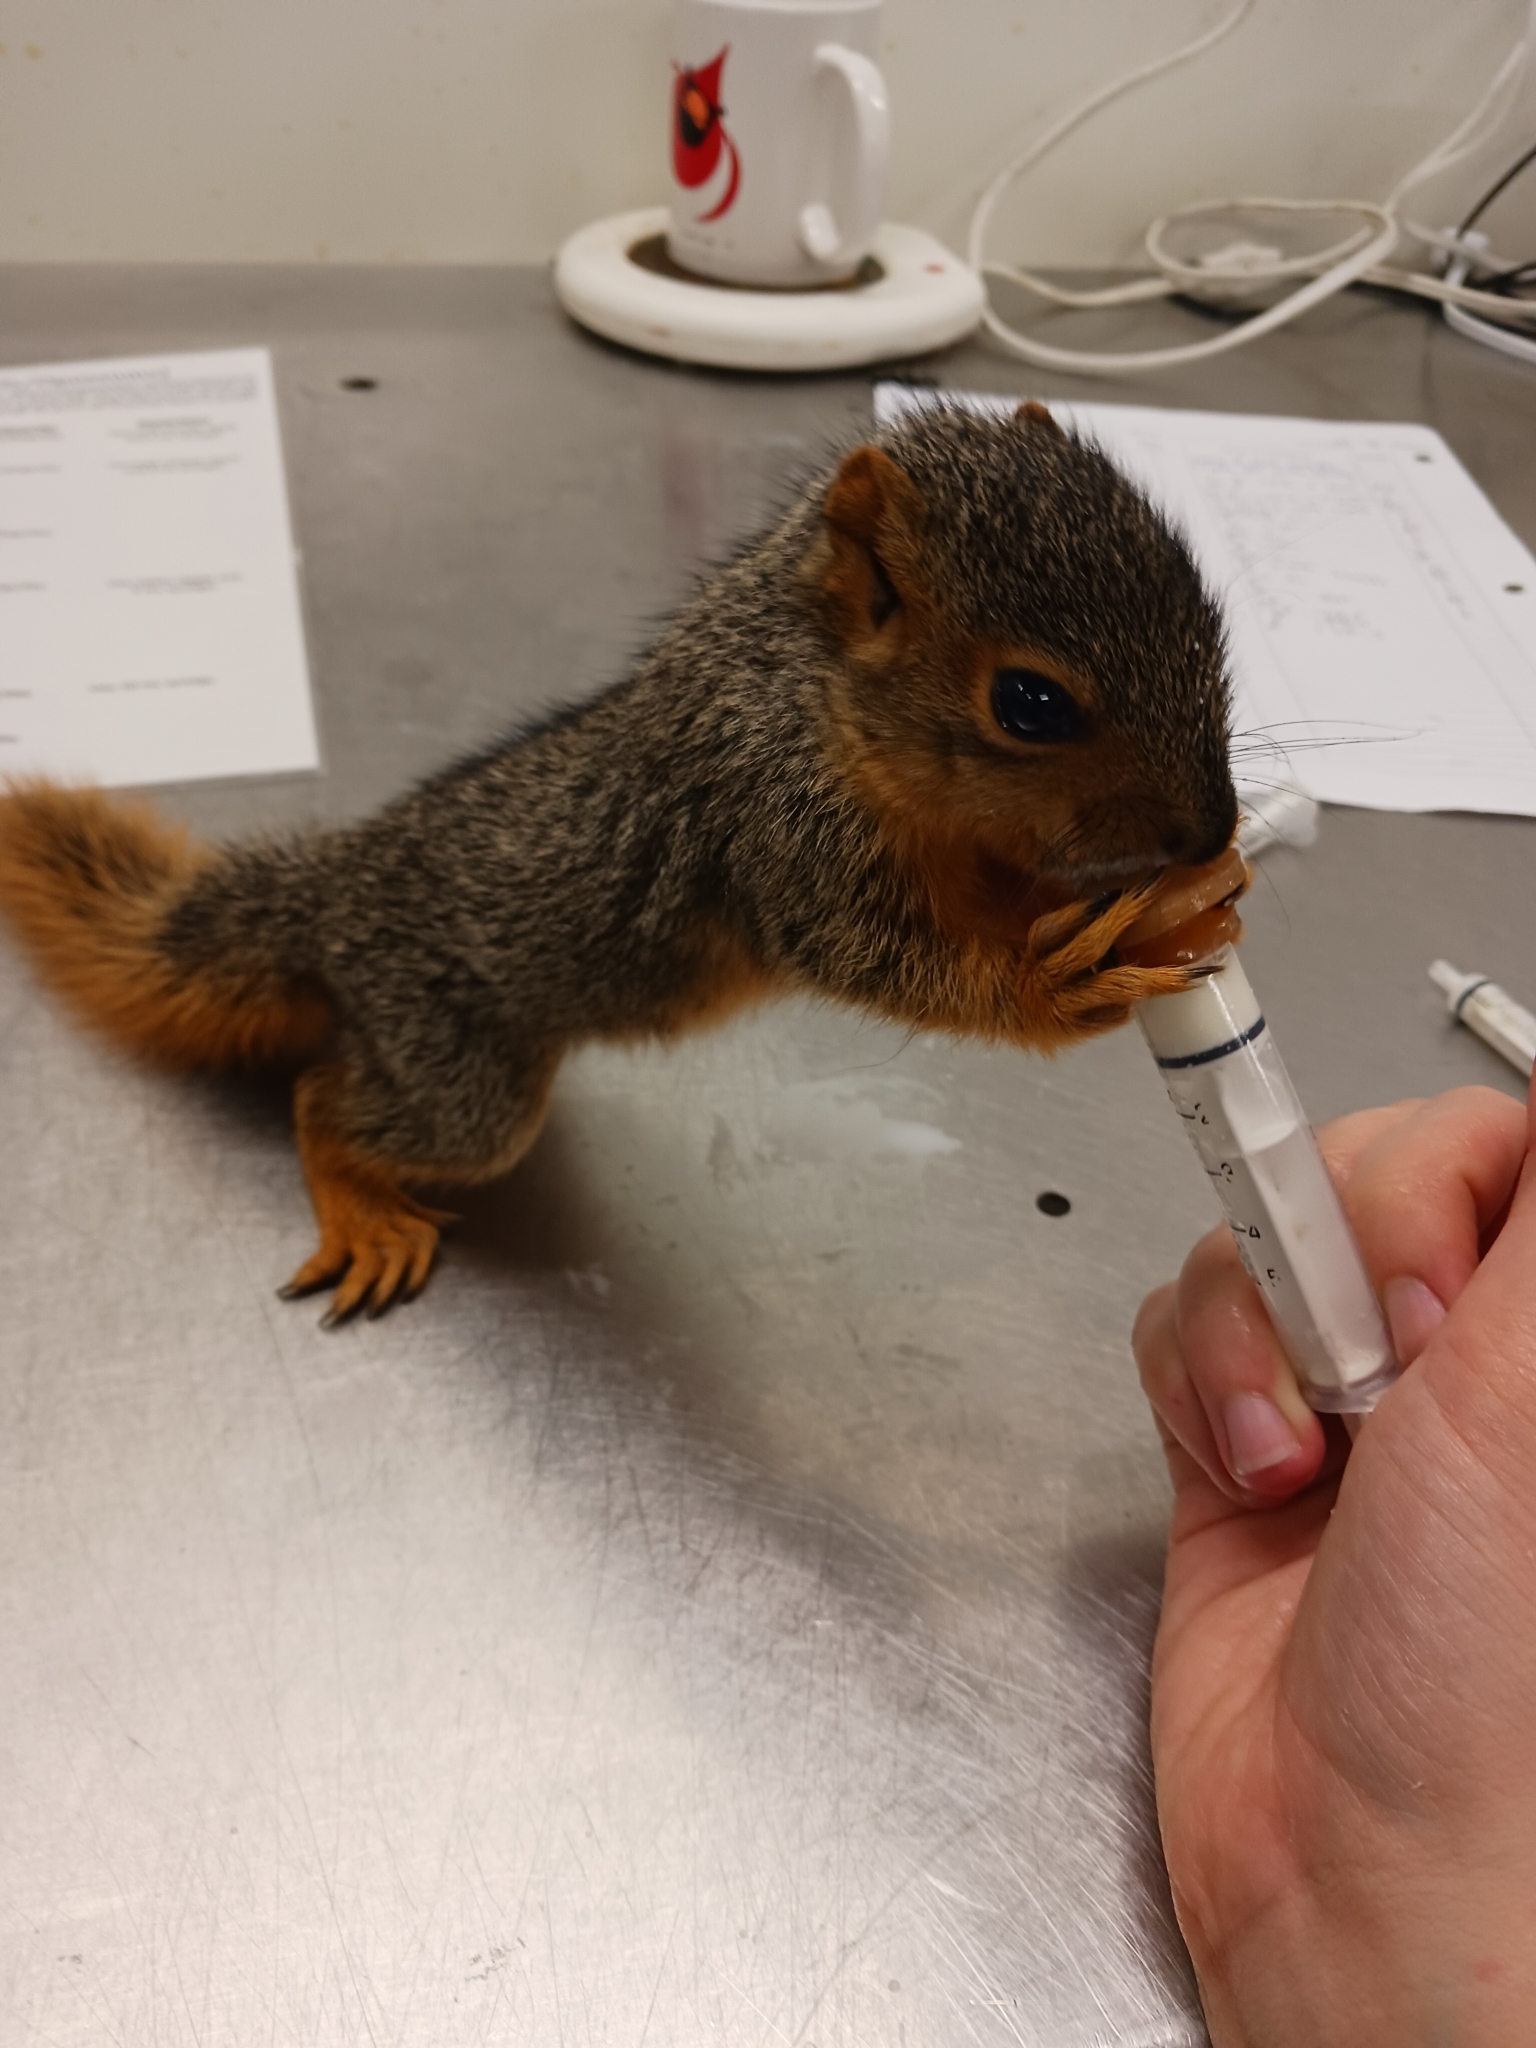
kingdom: Animalia
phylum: Chordata
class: Mammalia
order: Rodentia
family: Sciuridae
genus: Sciurus
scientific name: Sciurus niger
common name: Fox squirrel
